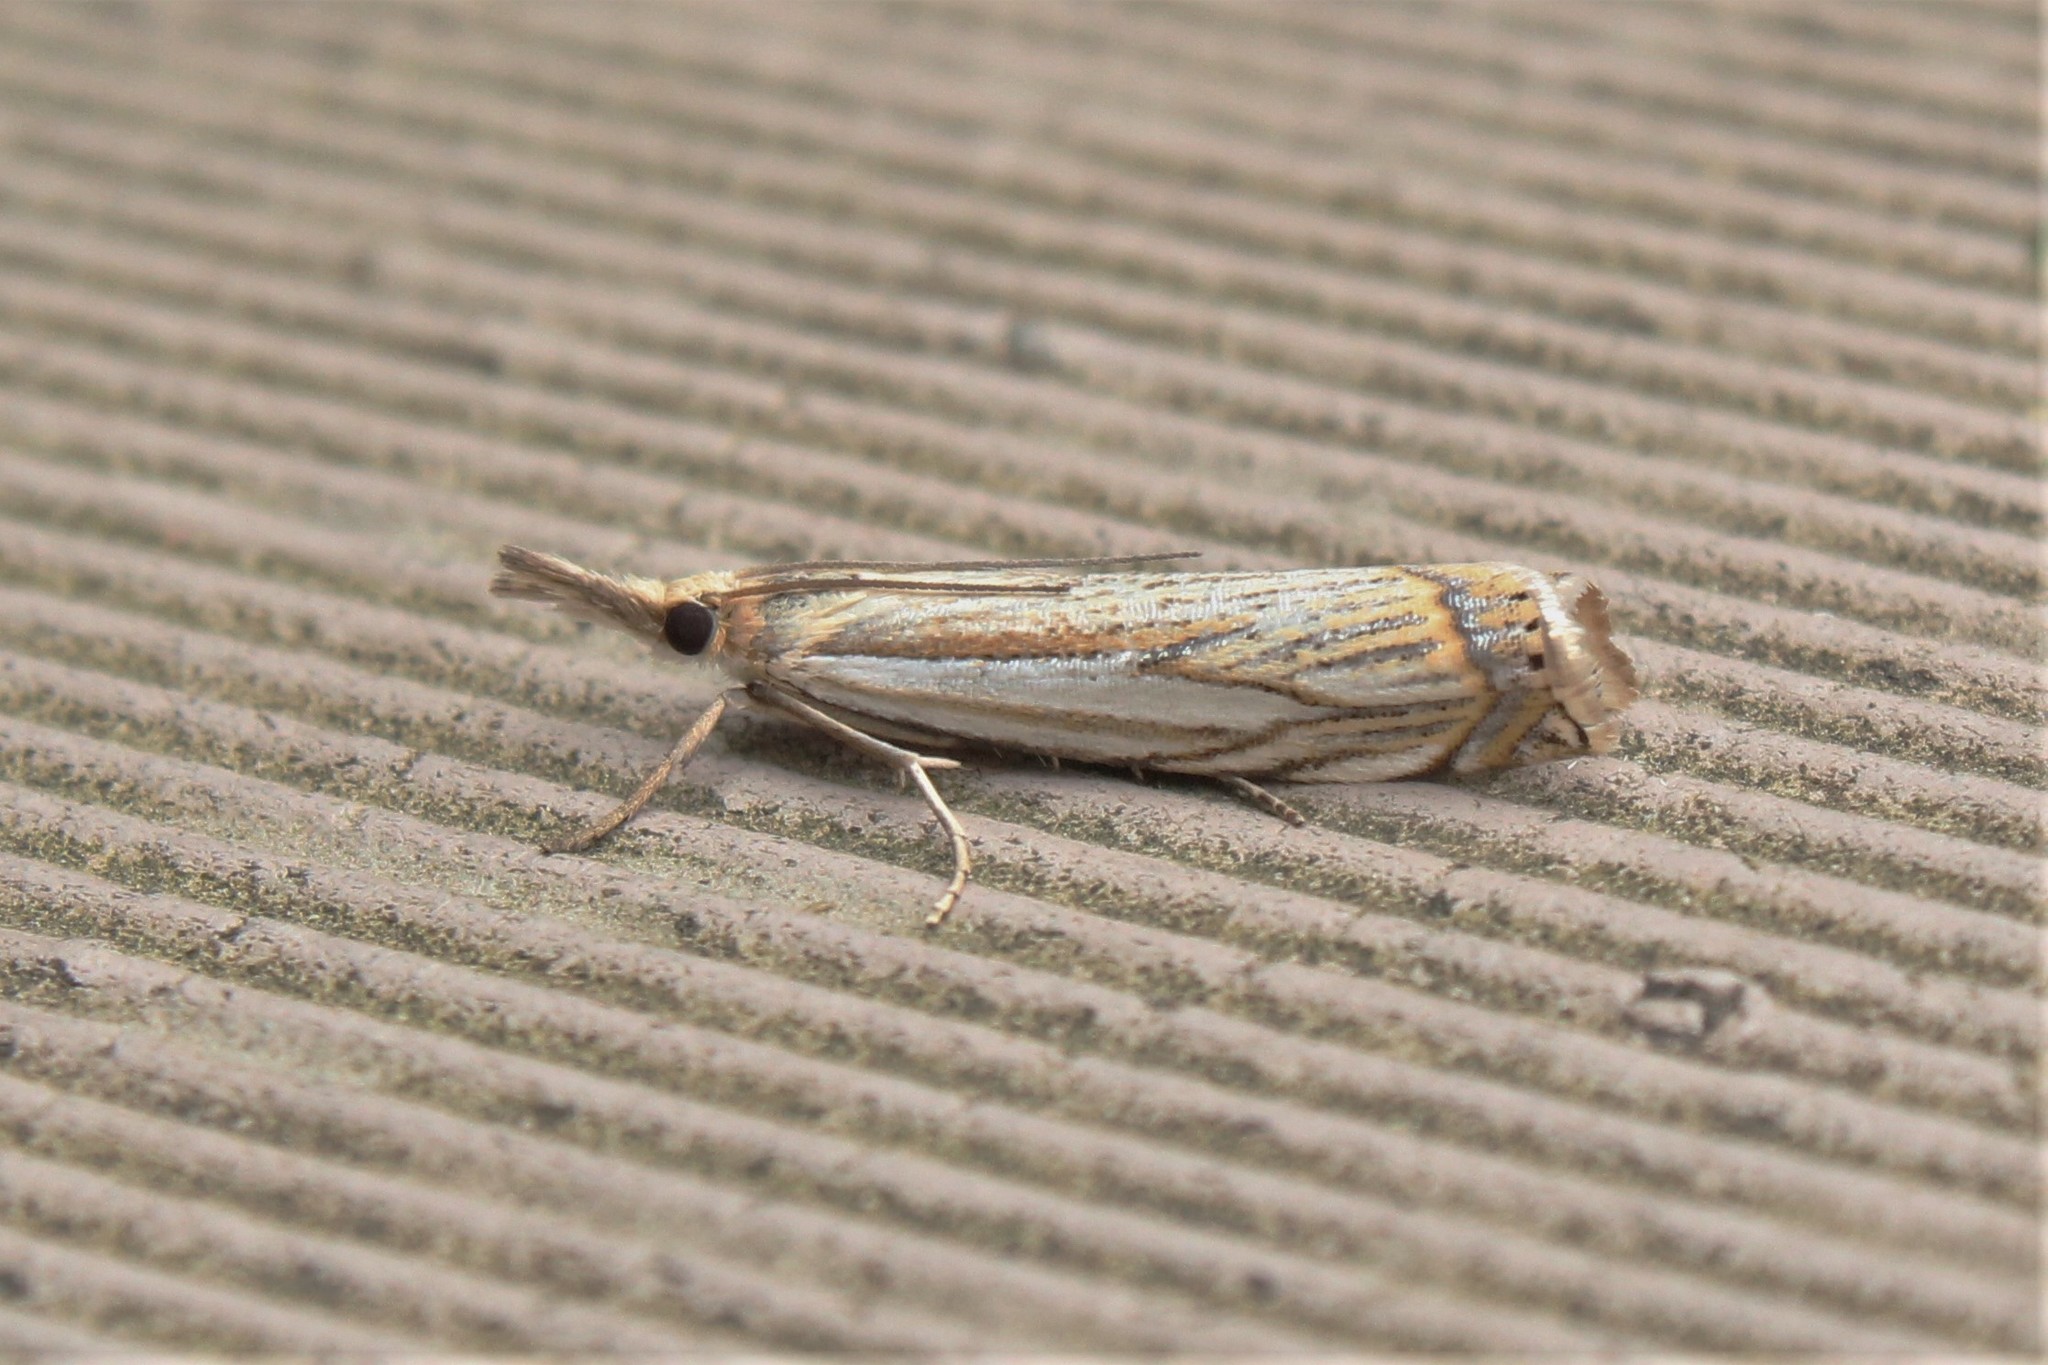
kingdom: Animalia
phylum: Arthropoda
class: Insecta
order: Lepidoptera
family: Crambidae
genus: Crambus
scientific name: Crambus saltuellus
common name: Pasture grass-veneer
